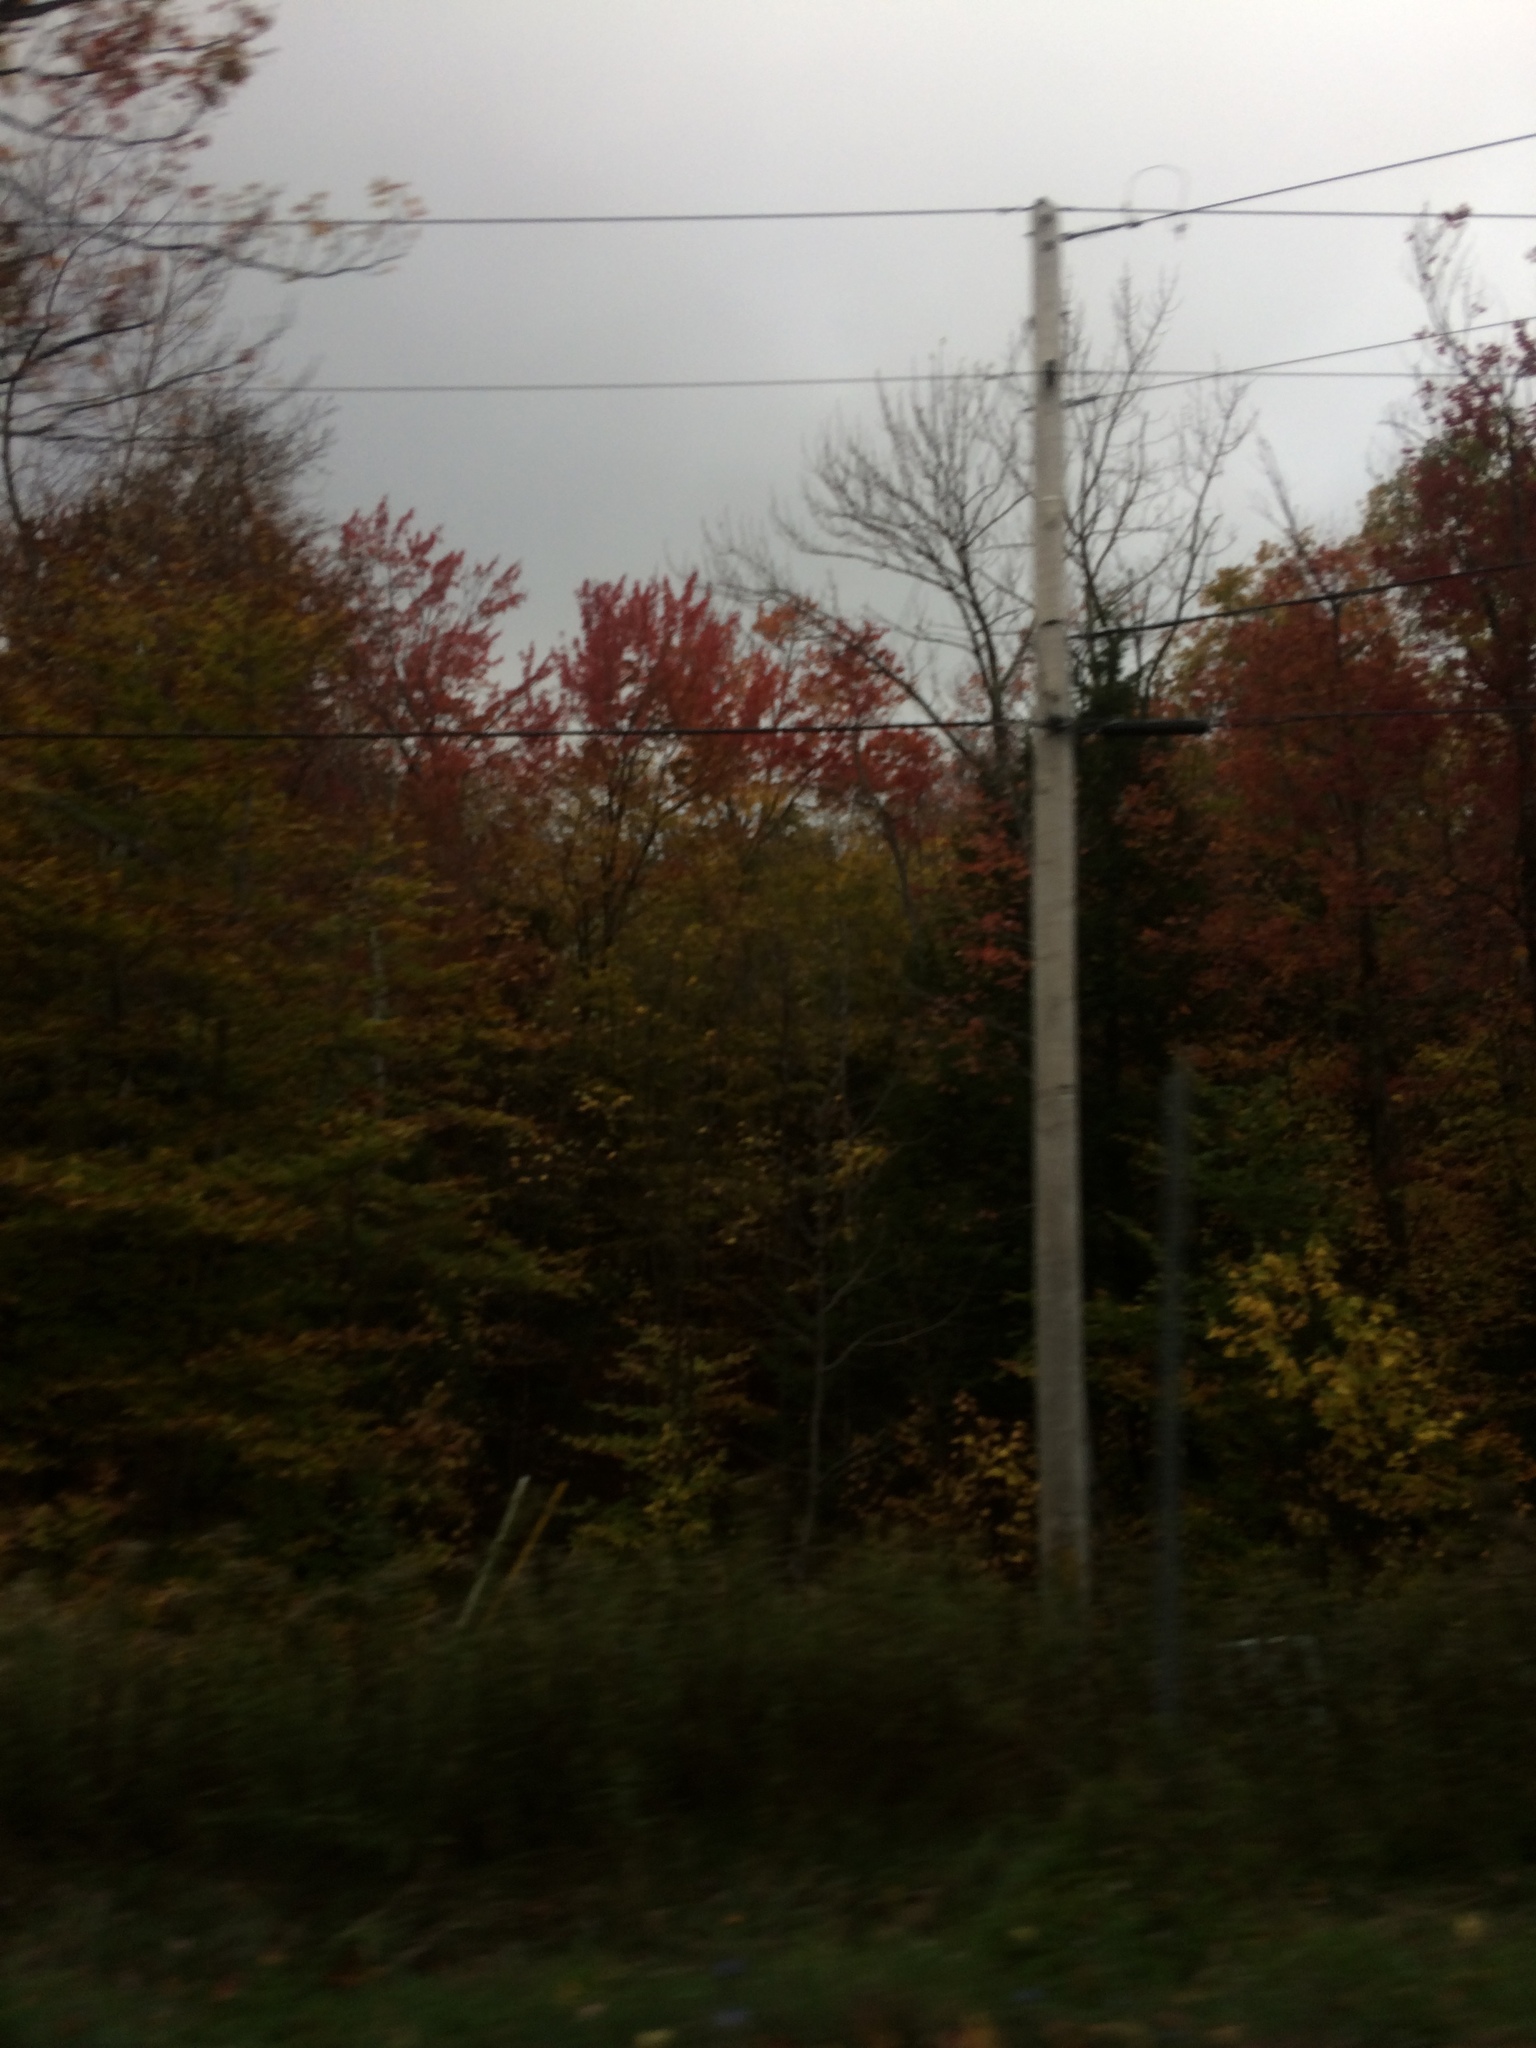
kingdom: Plantae
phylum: Tracheophyta
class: Magnoliopsida
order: Sapindales
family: Sapindaceae
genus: Acer
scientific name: Acer rubrum
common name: Red maple
